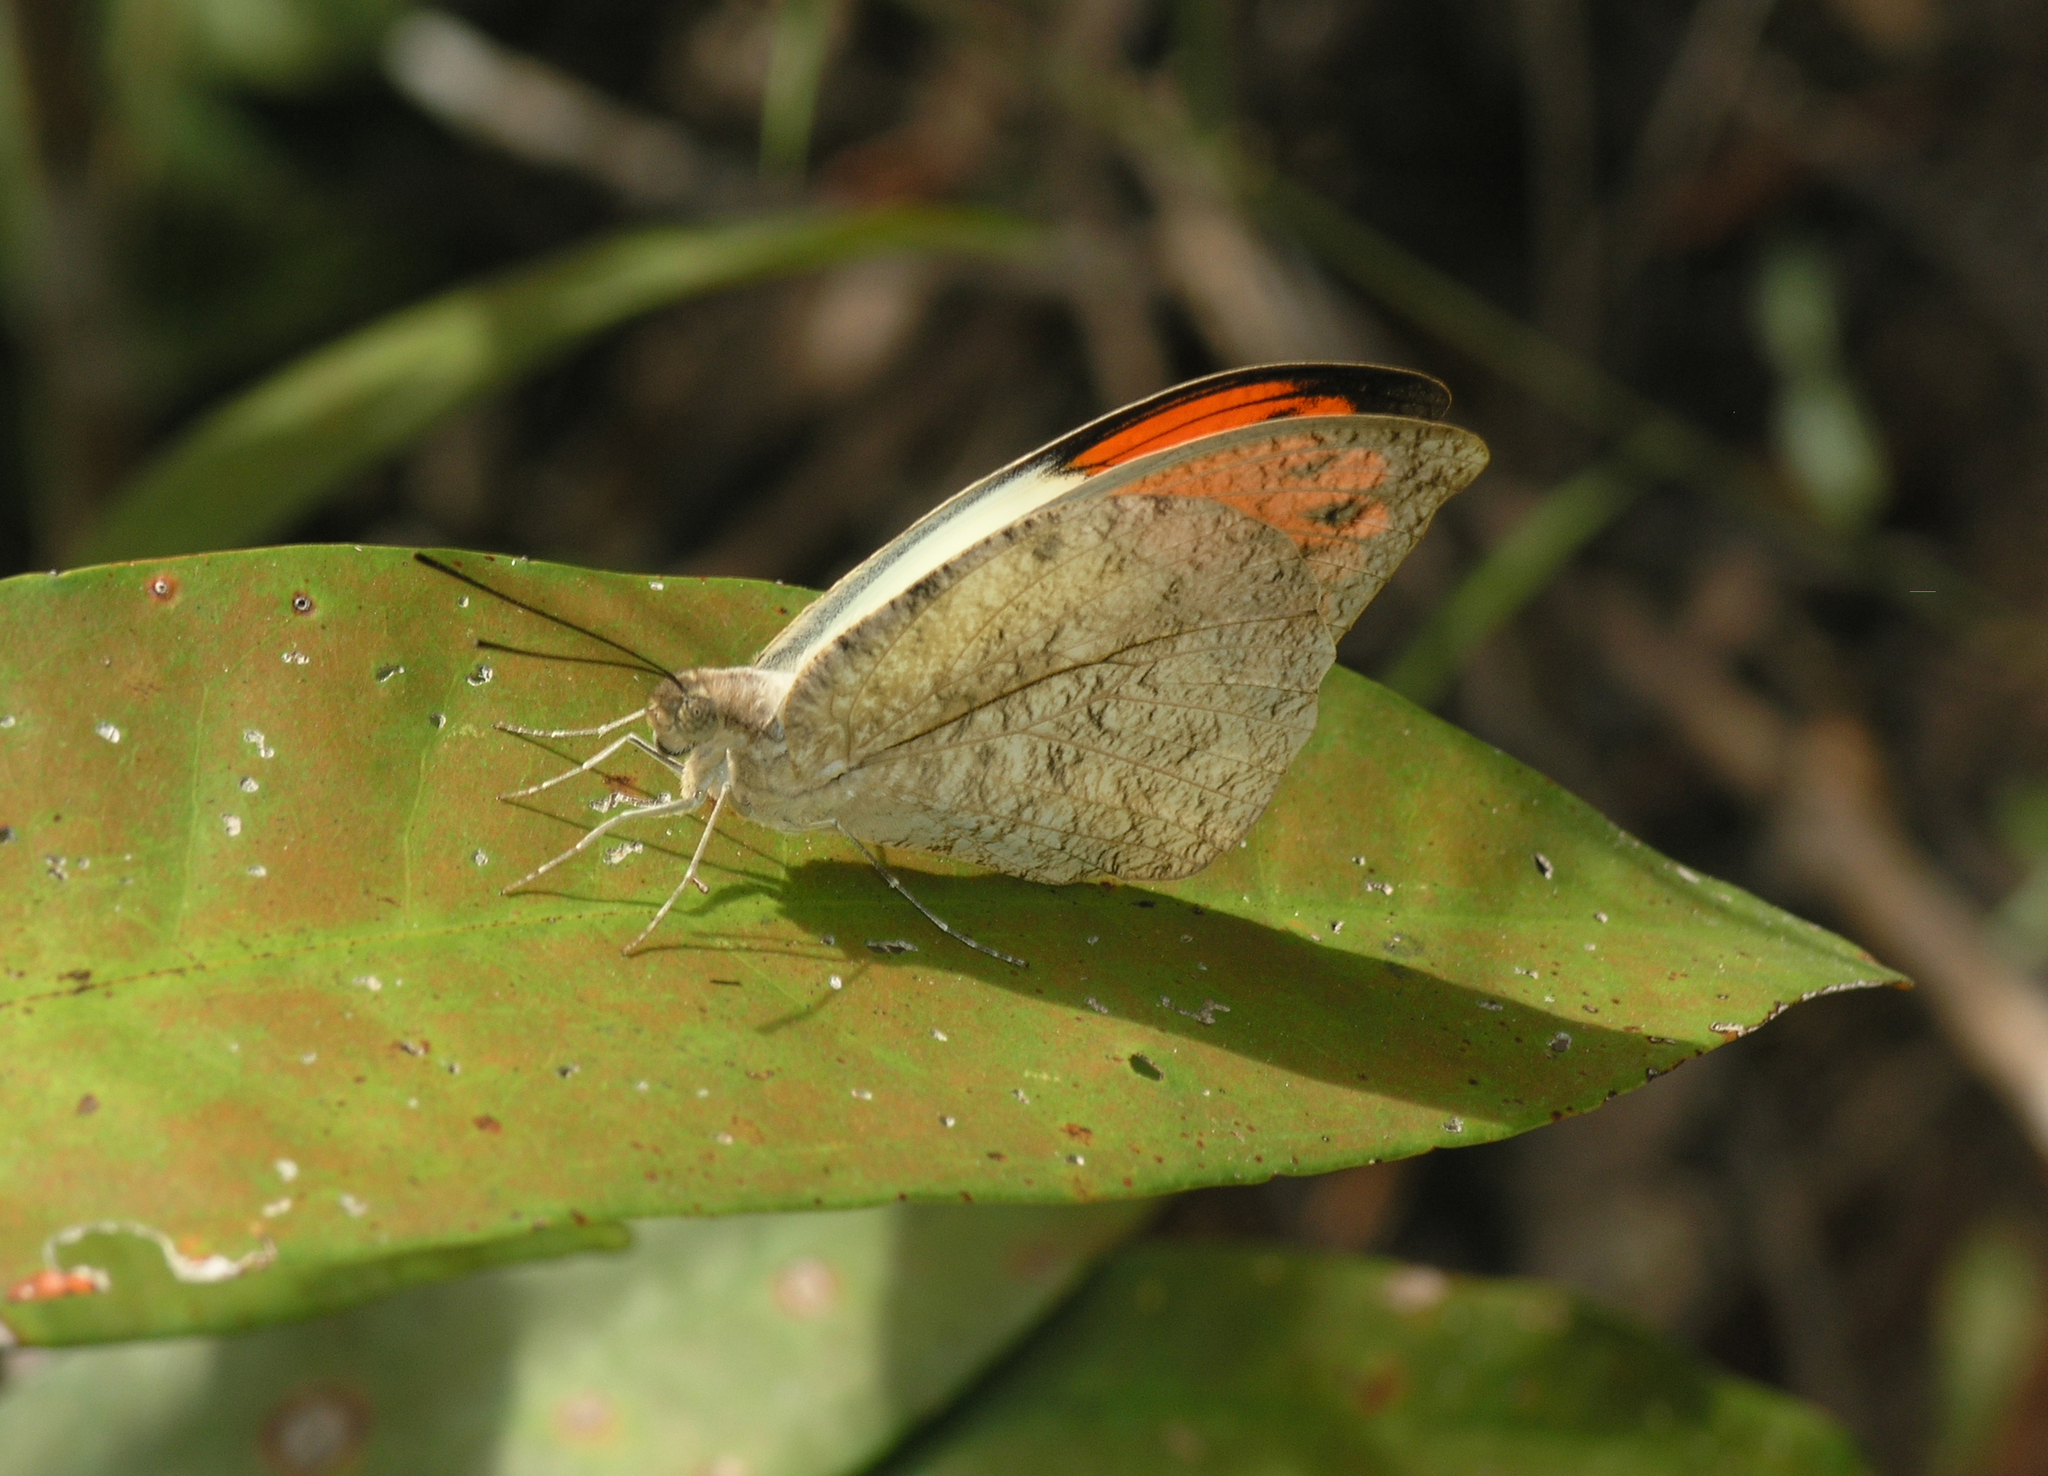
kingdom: Animalia
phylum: Arthropoda
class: Insecta
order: Lepidoptera
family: Pieridae
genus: Hebomoia
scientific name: Hebomoia glaucippe
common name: Great orange tip
